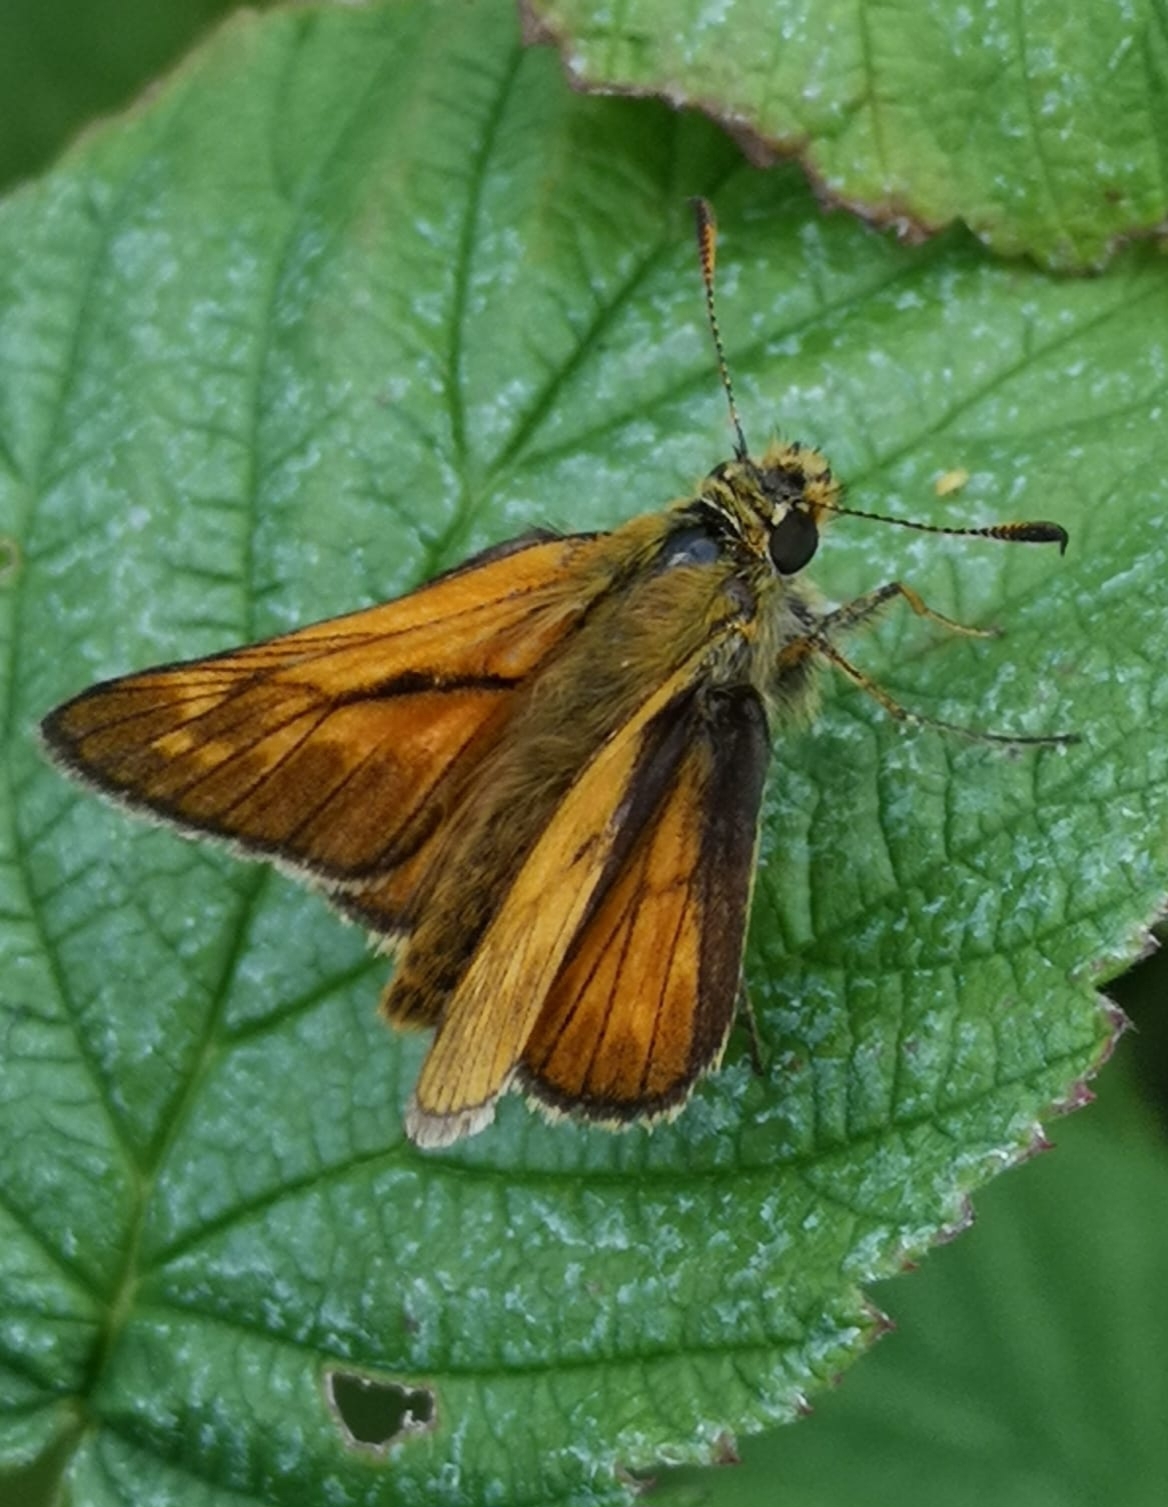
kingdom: Animalia
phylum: Arthropoda
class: Insecta
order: Lepidoptera
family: Hesperiidae
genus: Ochlodes
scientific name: Ochlodes venata
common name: Large skipper
